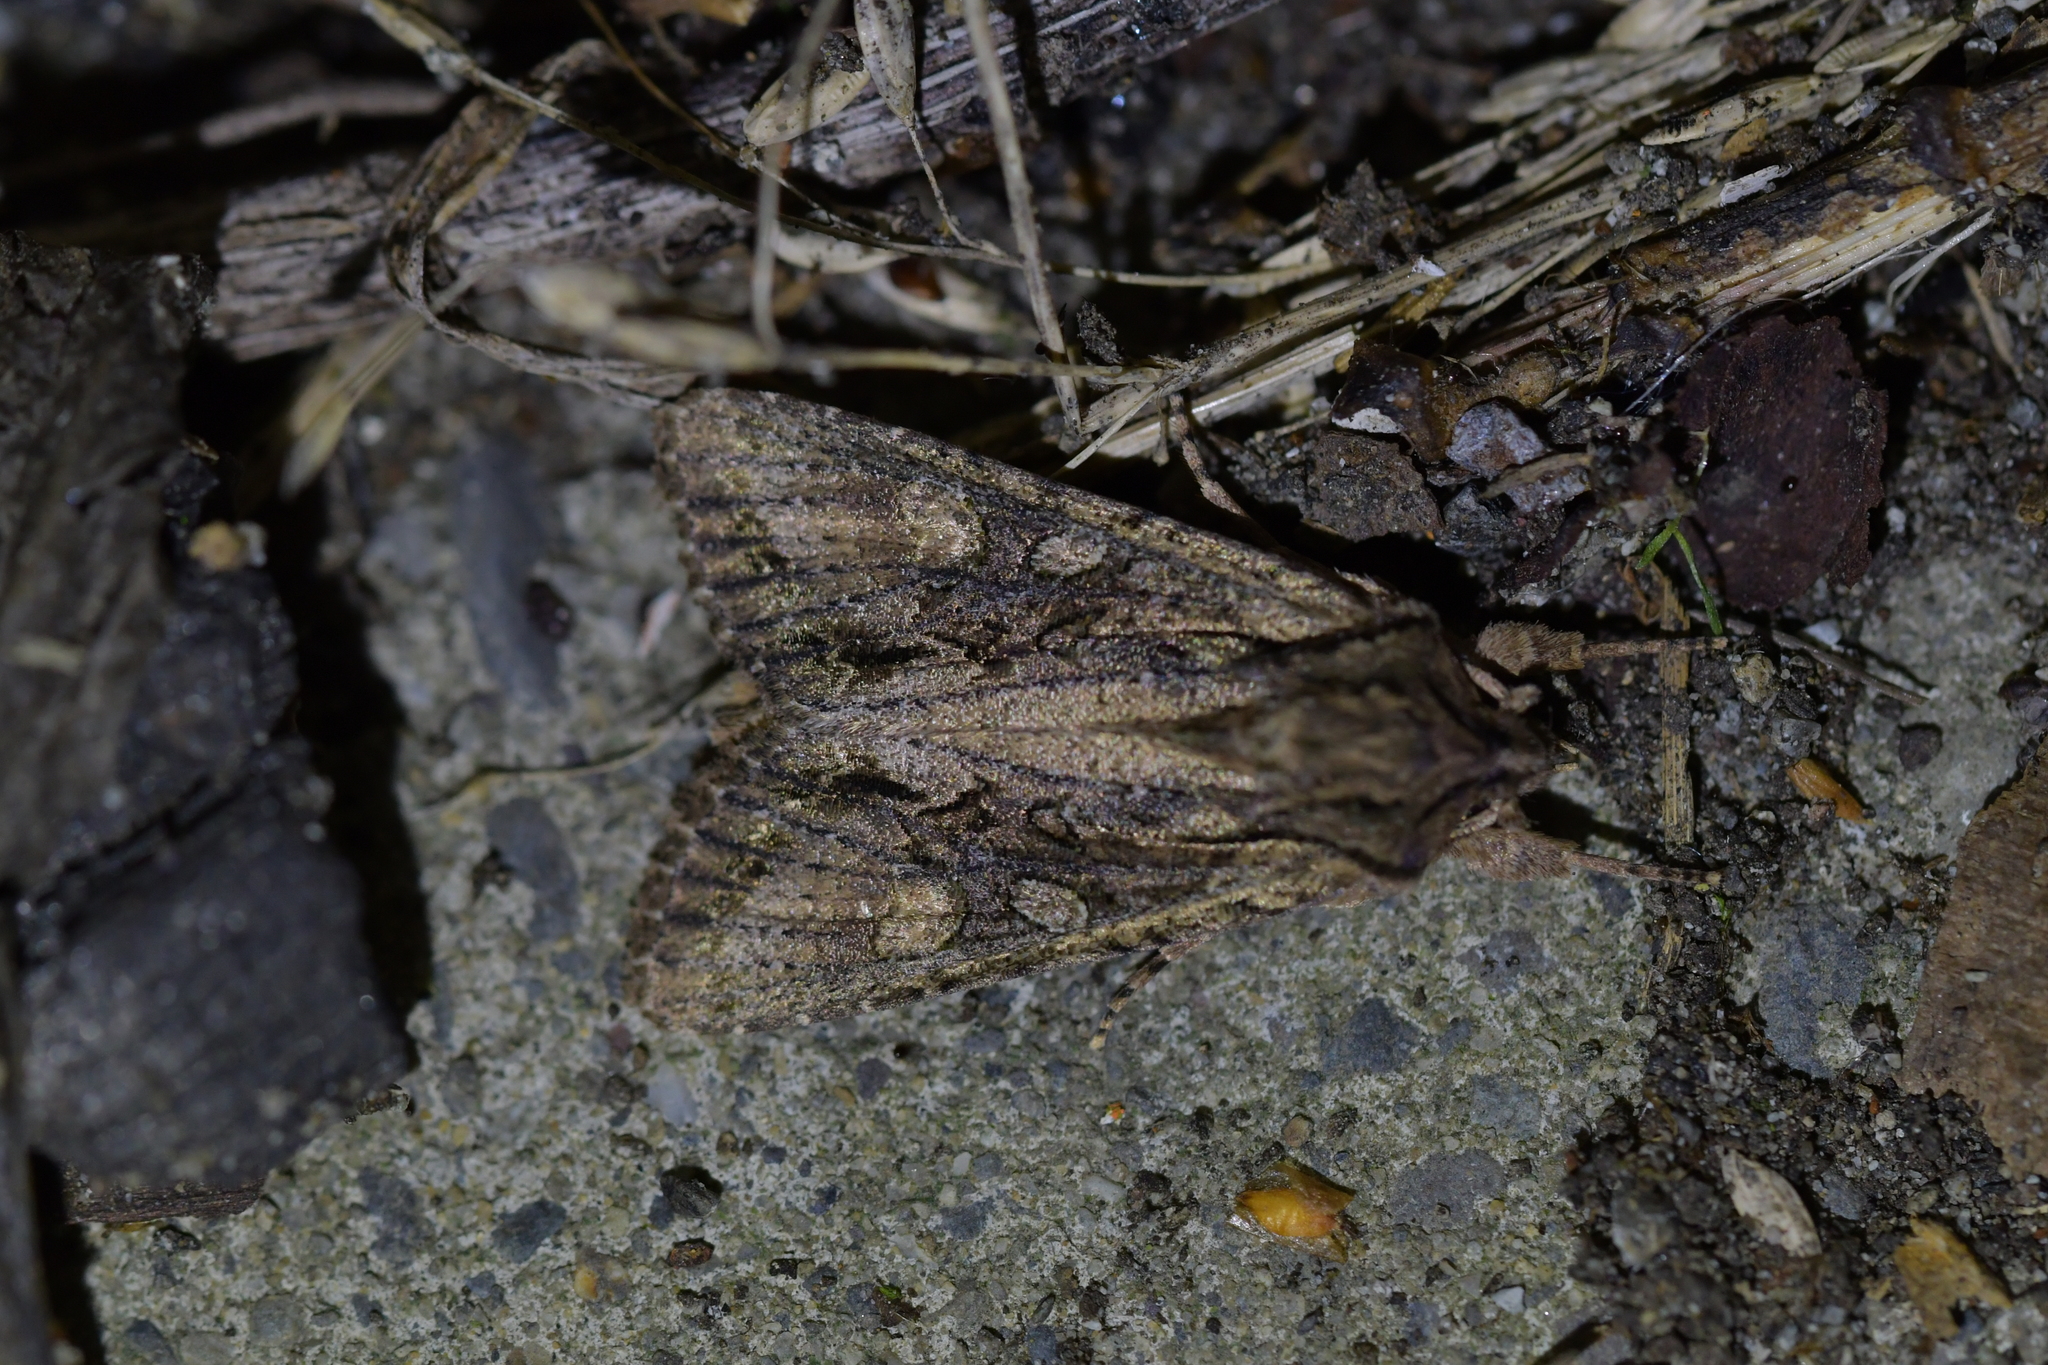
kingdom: Animalia
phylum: Arthropoda
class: Insecta
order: Lepidoptera
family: Noctuidae
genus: Ichneutica
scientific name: Ichneutica mutans
